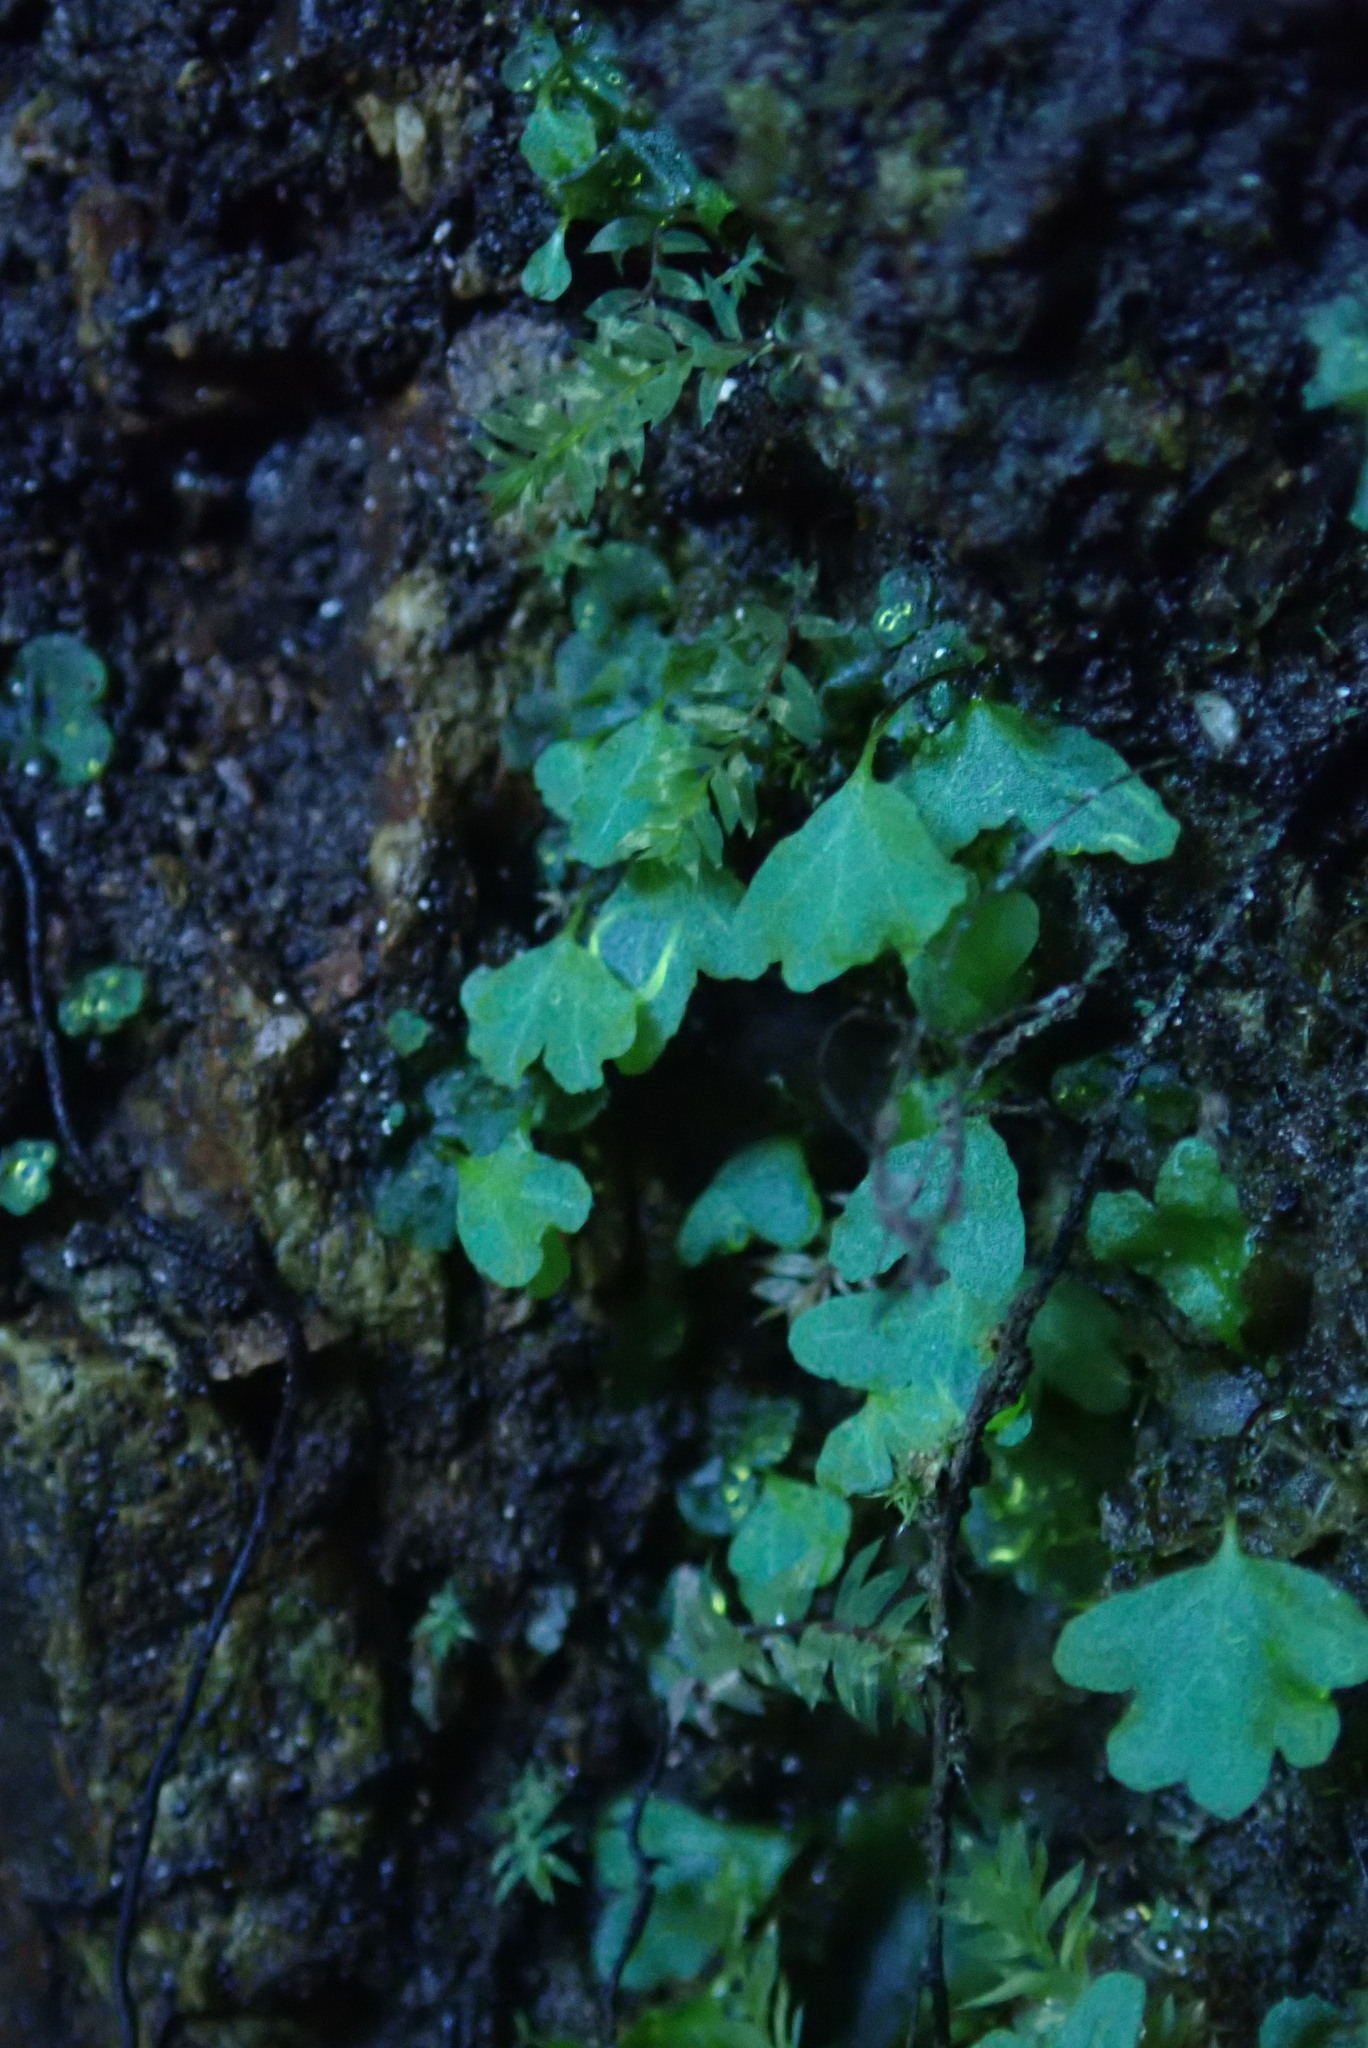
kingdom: Plantae
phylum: Tracheophyta
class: Polypodiopsida
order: Polypodiales
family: Aspleniaceae
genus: Asplenium
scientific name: Asplenium trichomanes
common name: Maidenhair spleenwort
